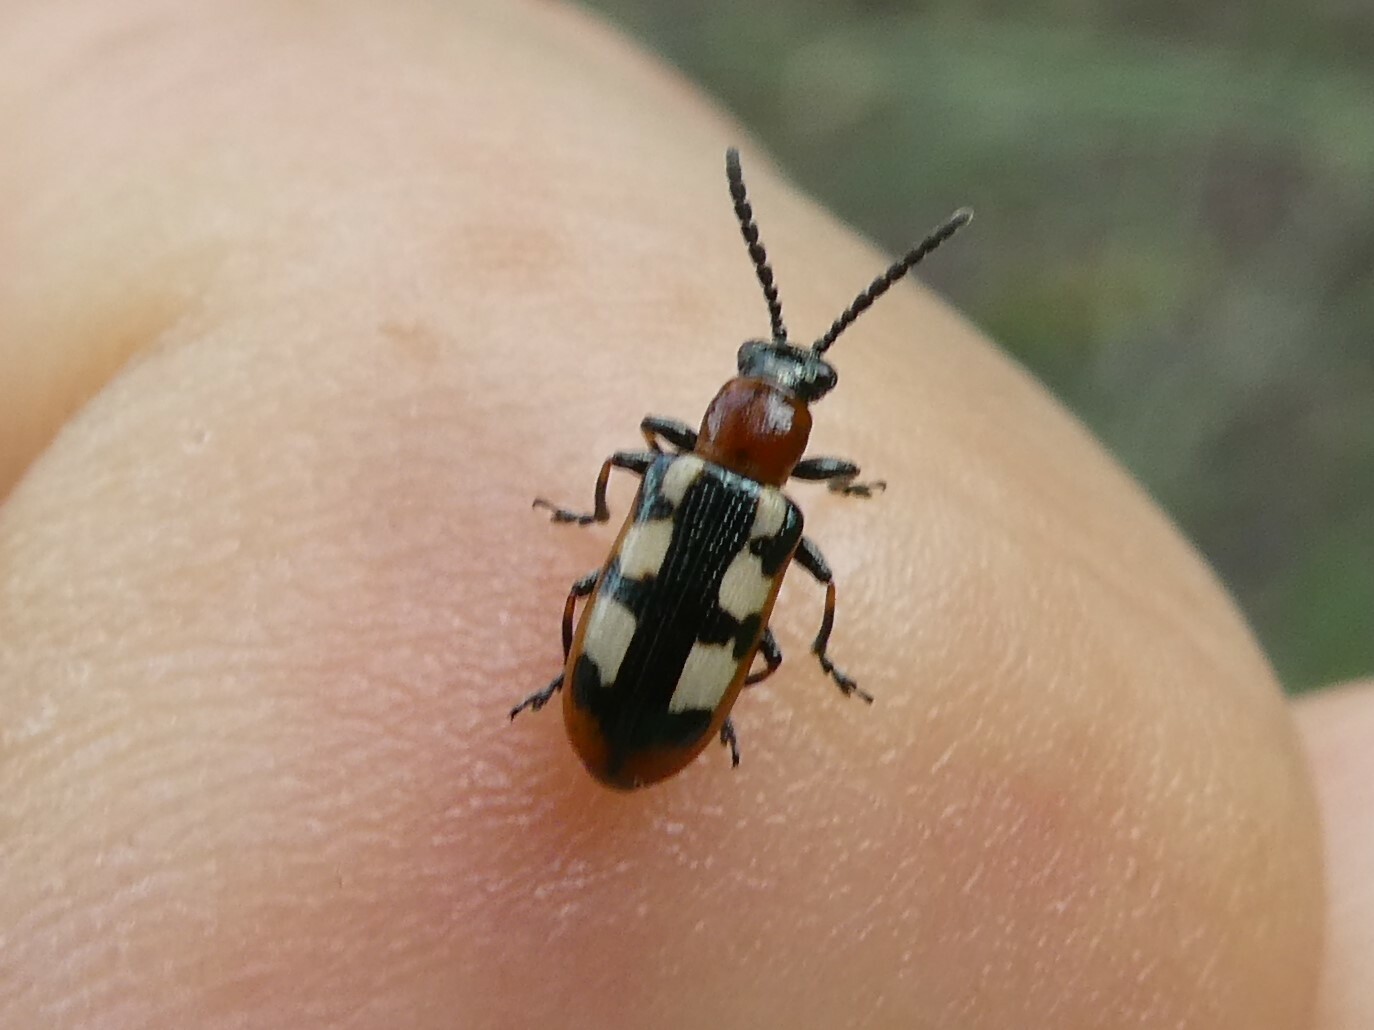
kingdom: Animalia
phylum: Arthropoda
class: Insecta
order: Coleoptera
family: Chrysomelidae
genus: Crioceris
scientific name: Crioceris asparagi
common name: Asparagus beetle
